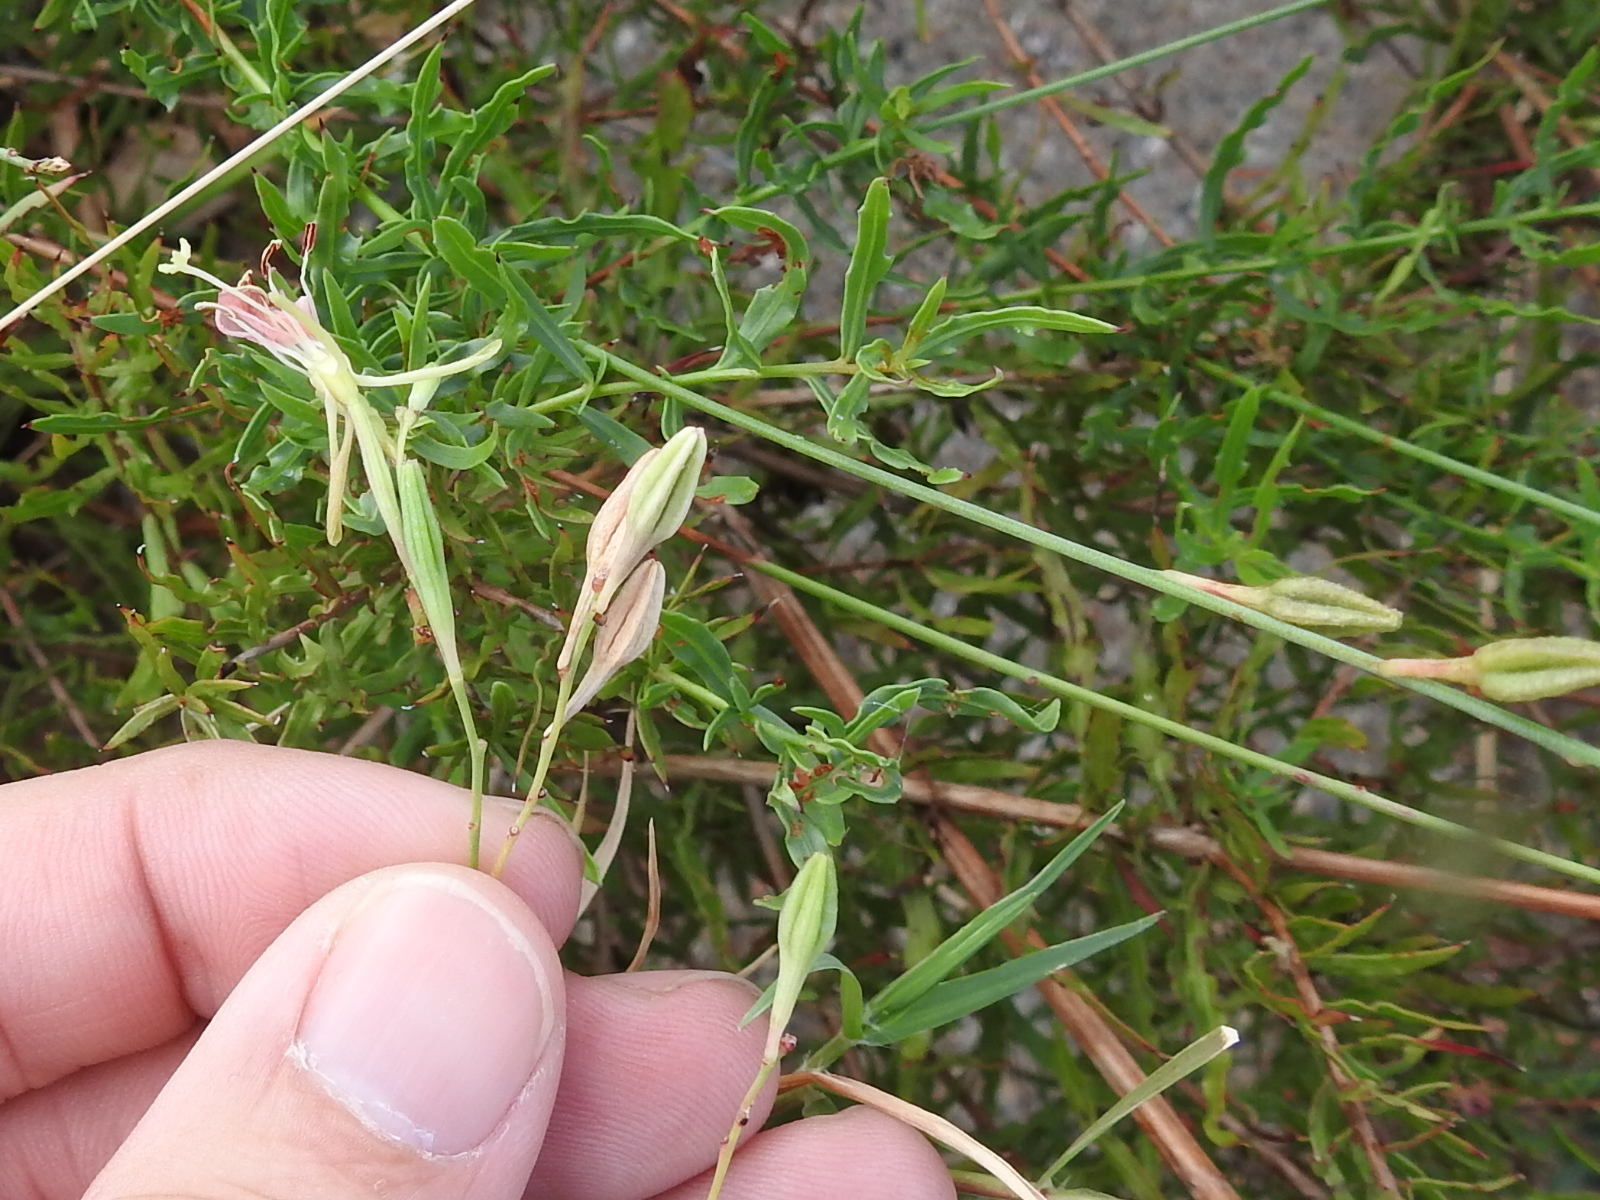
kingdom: Plantae
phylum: Tracheophyta
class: Magnoliopsida
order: Myrtales
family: Onagraceae
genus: Oenothera
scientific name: Oenothera calcicola
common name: Texas beeblossom
